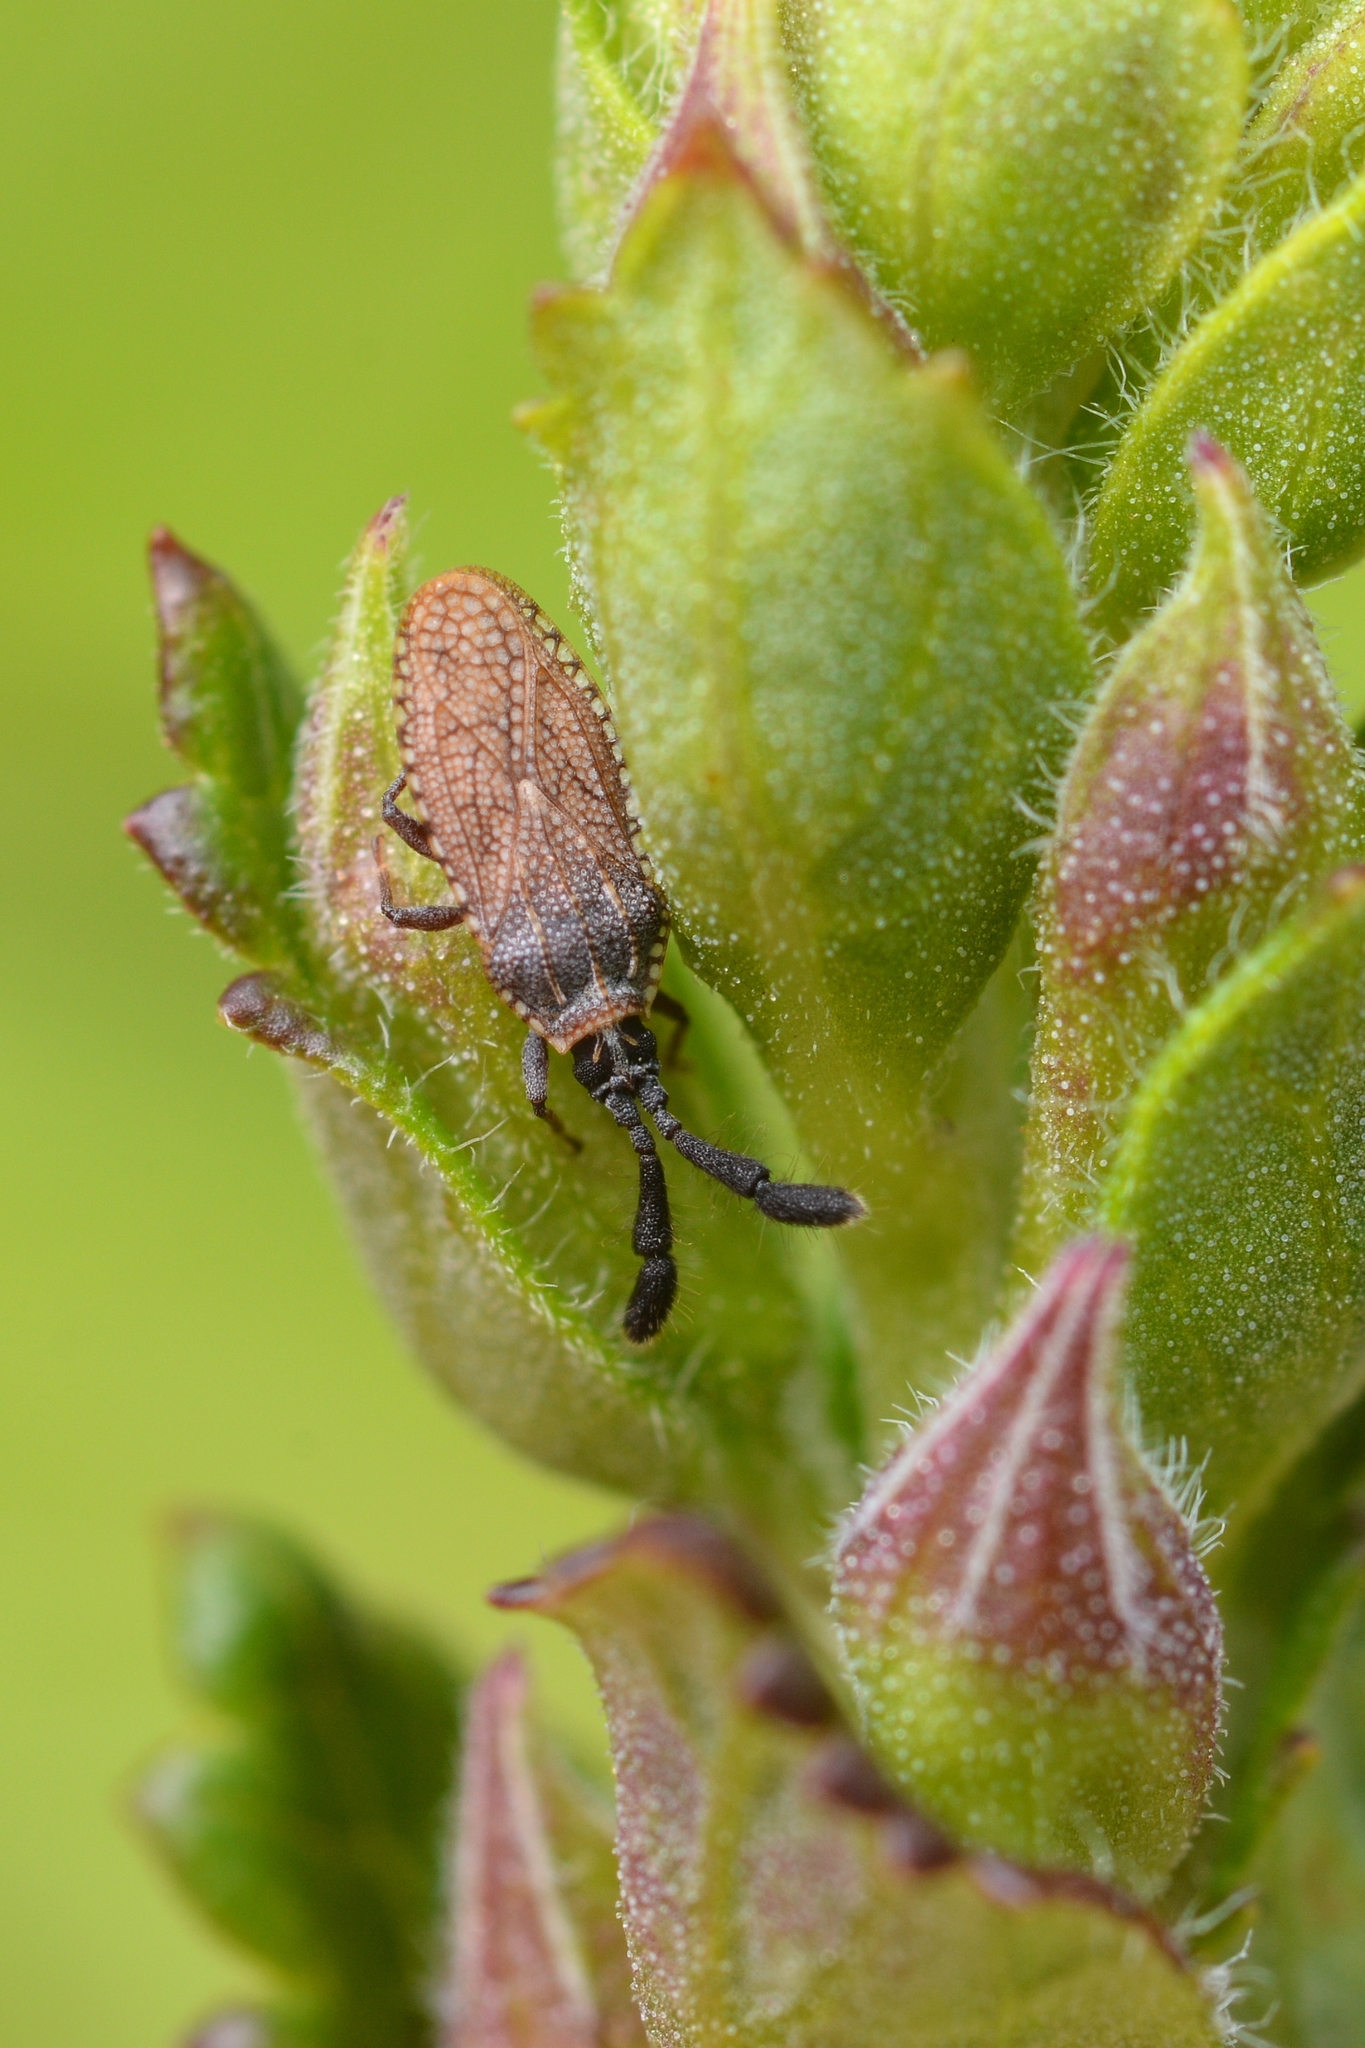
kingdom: Animalia
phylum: Arthropoda
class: Insecta
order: Hemiptera
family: Tingidae
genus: Copium
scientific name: Copium clavicorne
